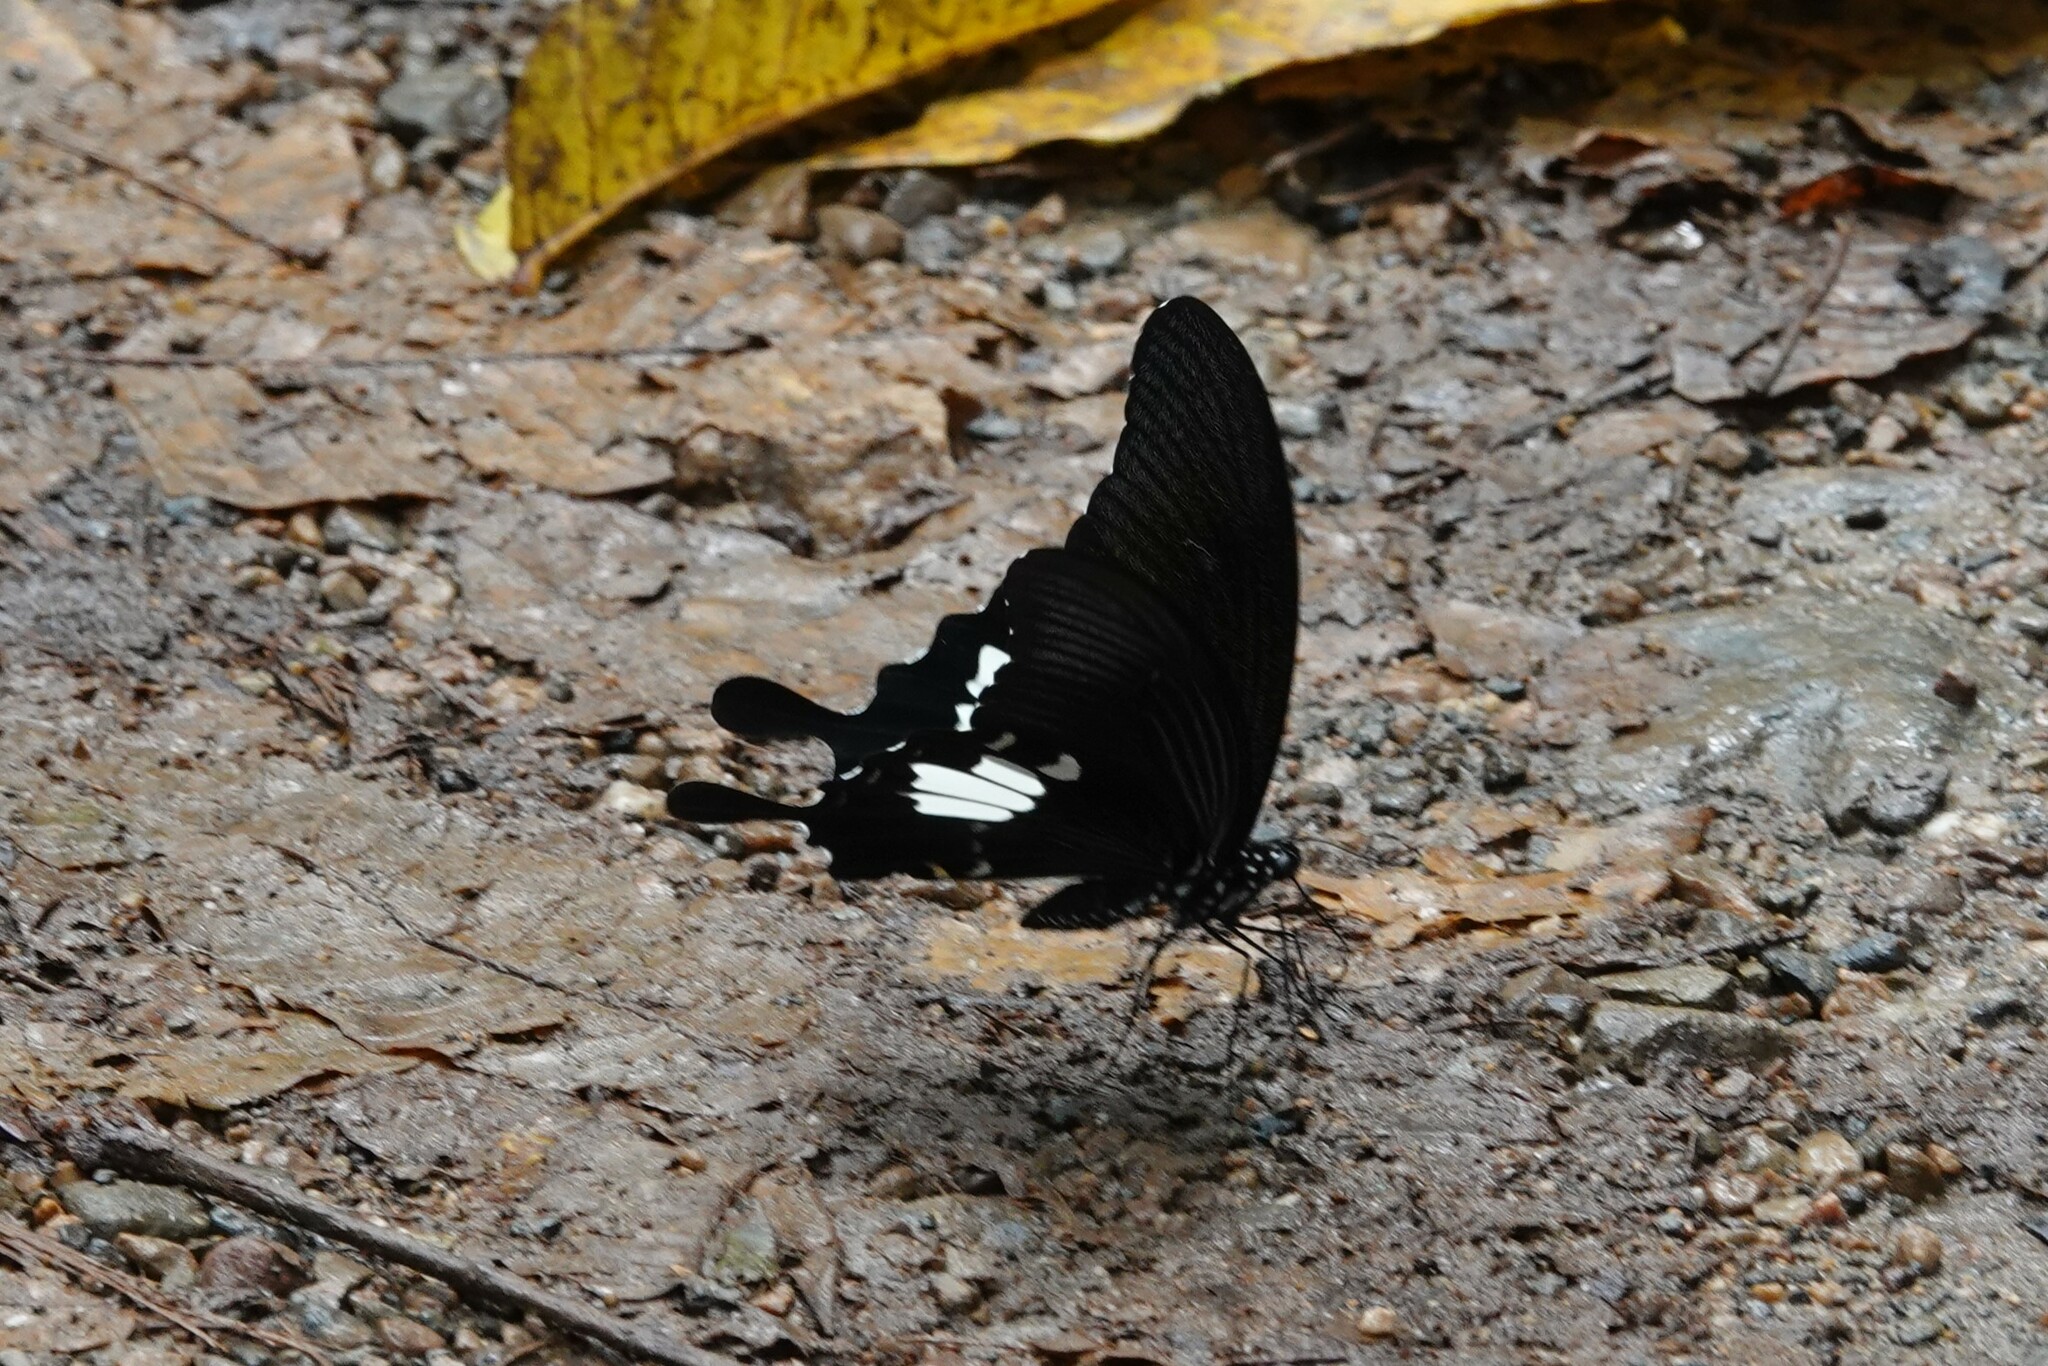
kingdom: Animalia
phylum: Arthropoda
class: Insecta
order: Lepidoptera
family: Papilionidae
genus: Papilio
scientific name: Papilio nephelus
